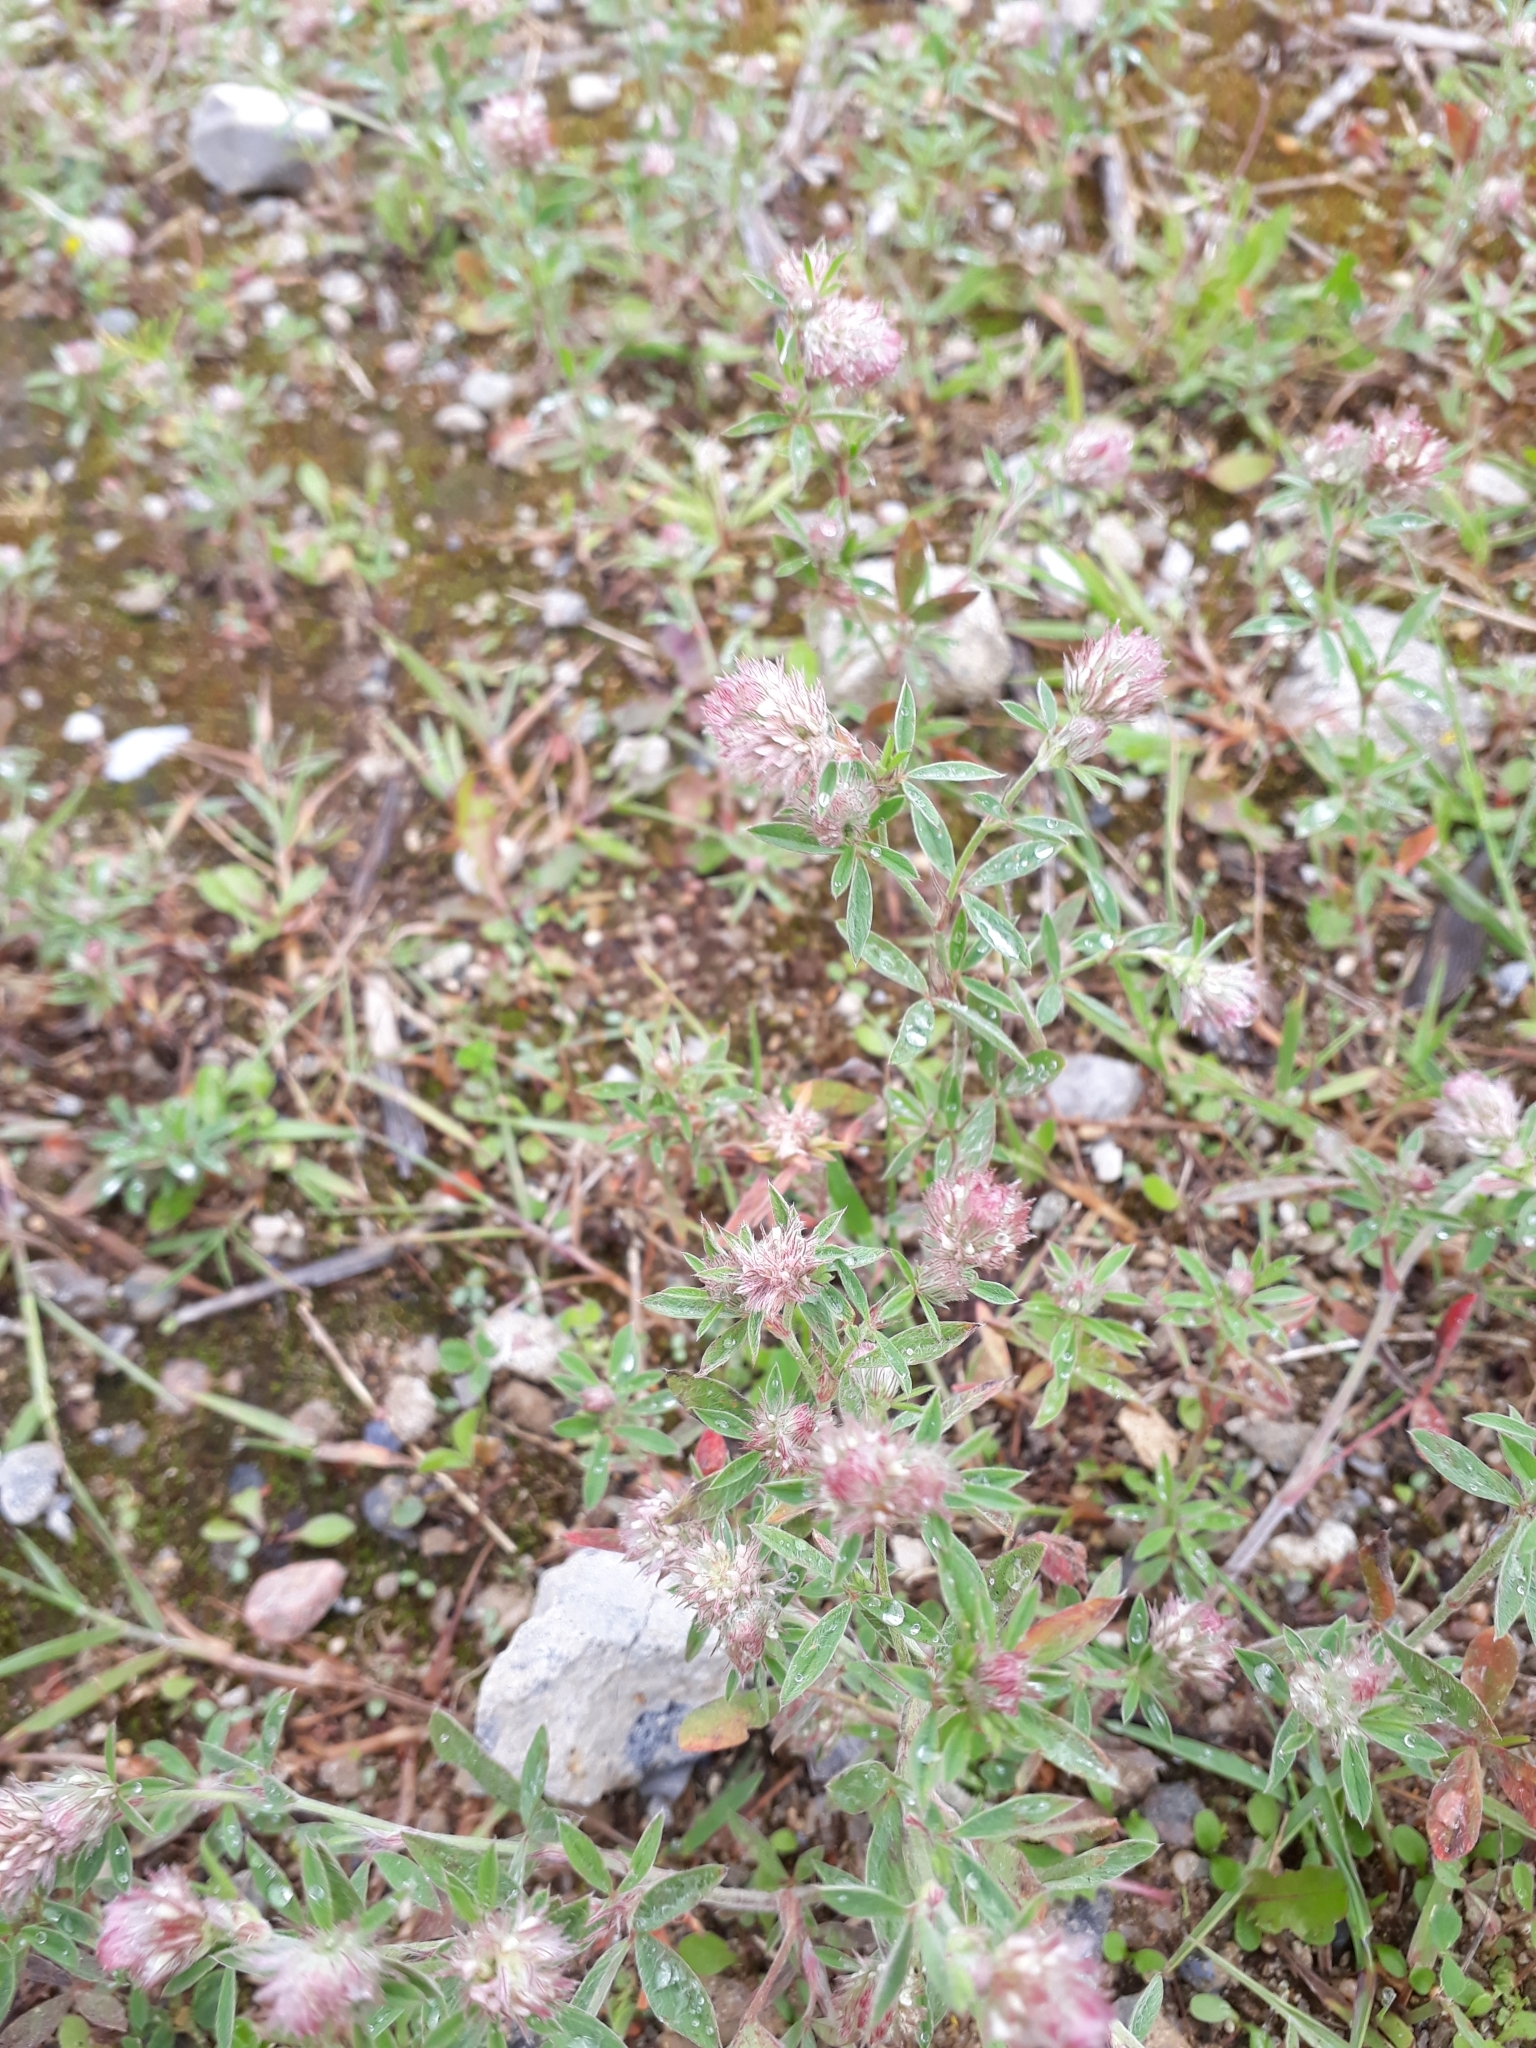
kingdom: Plantae
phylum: Tracheophyta
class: Magnoliopsida
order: Fabales
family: Fabaceae
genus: Trifolium
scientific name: Trifolium arvense
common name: Hare's-foot clover
